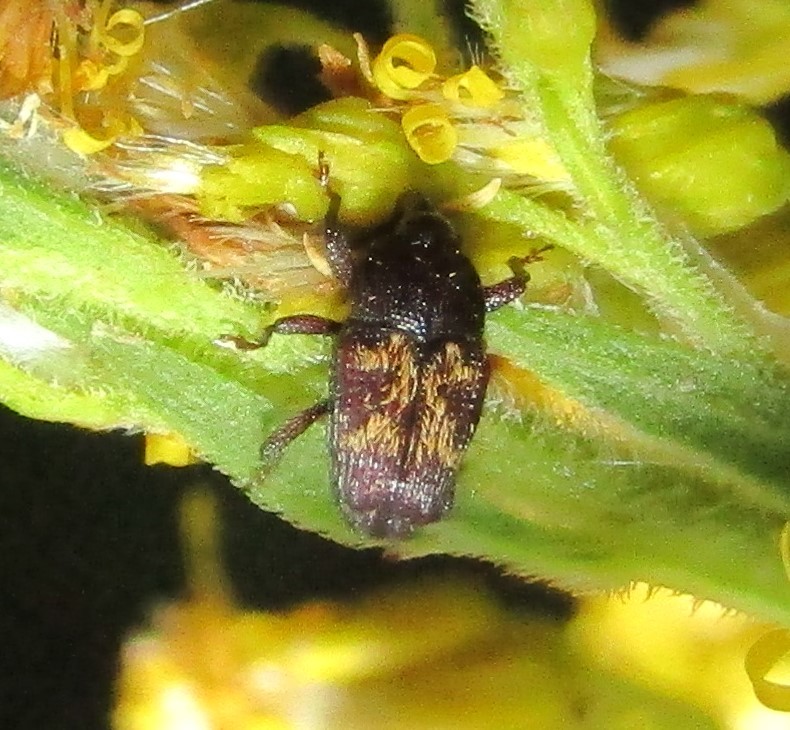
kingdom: Animalia
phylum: Arthropoda
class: Insecta
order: Coleoptera
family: Curculionidae
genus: Glyptobaris
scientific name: Glyptobaris lecontei
